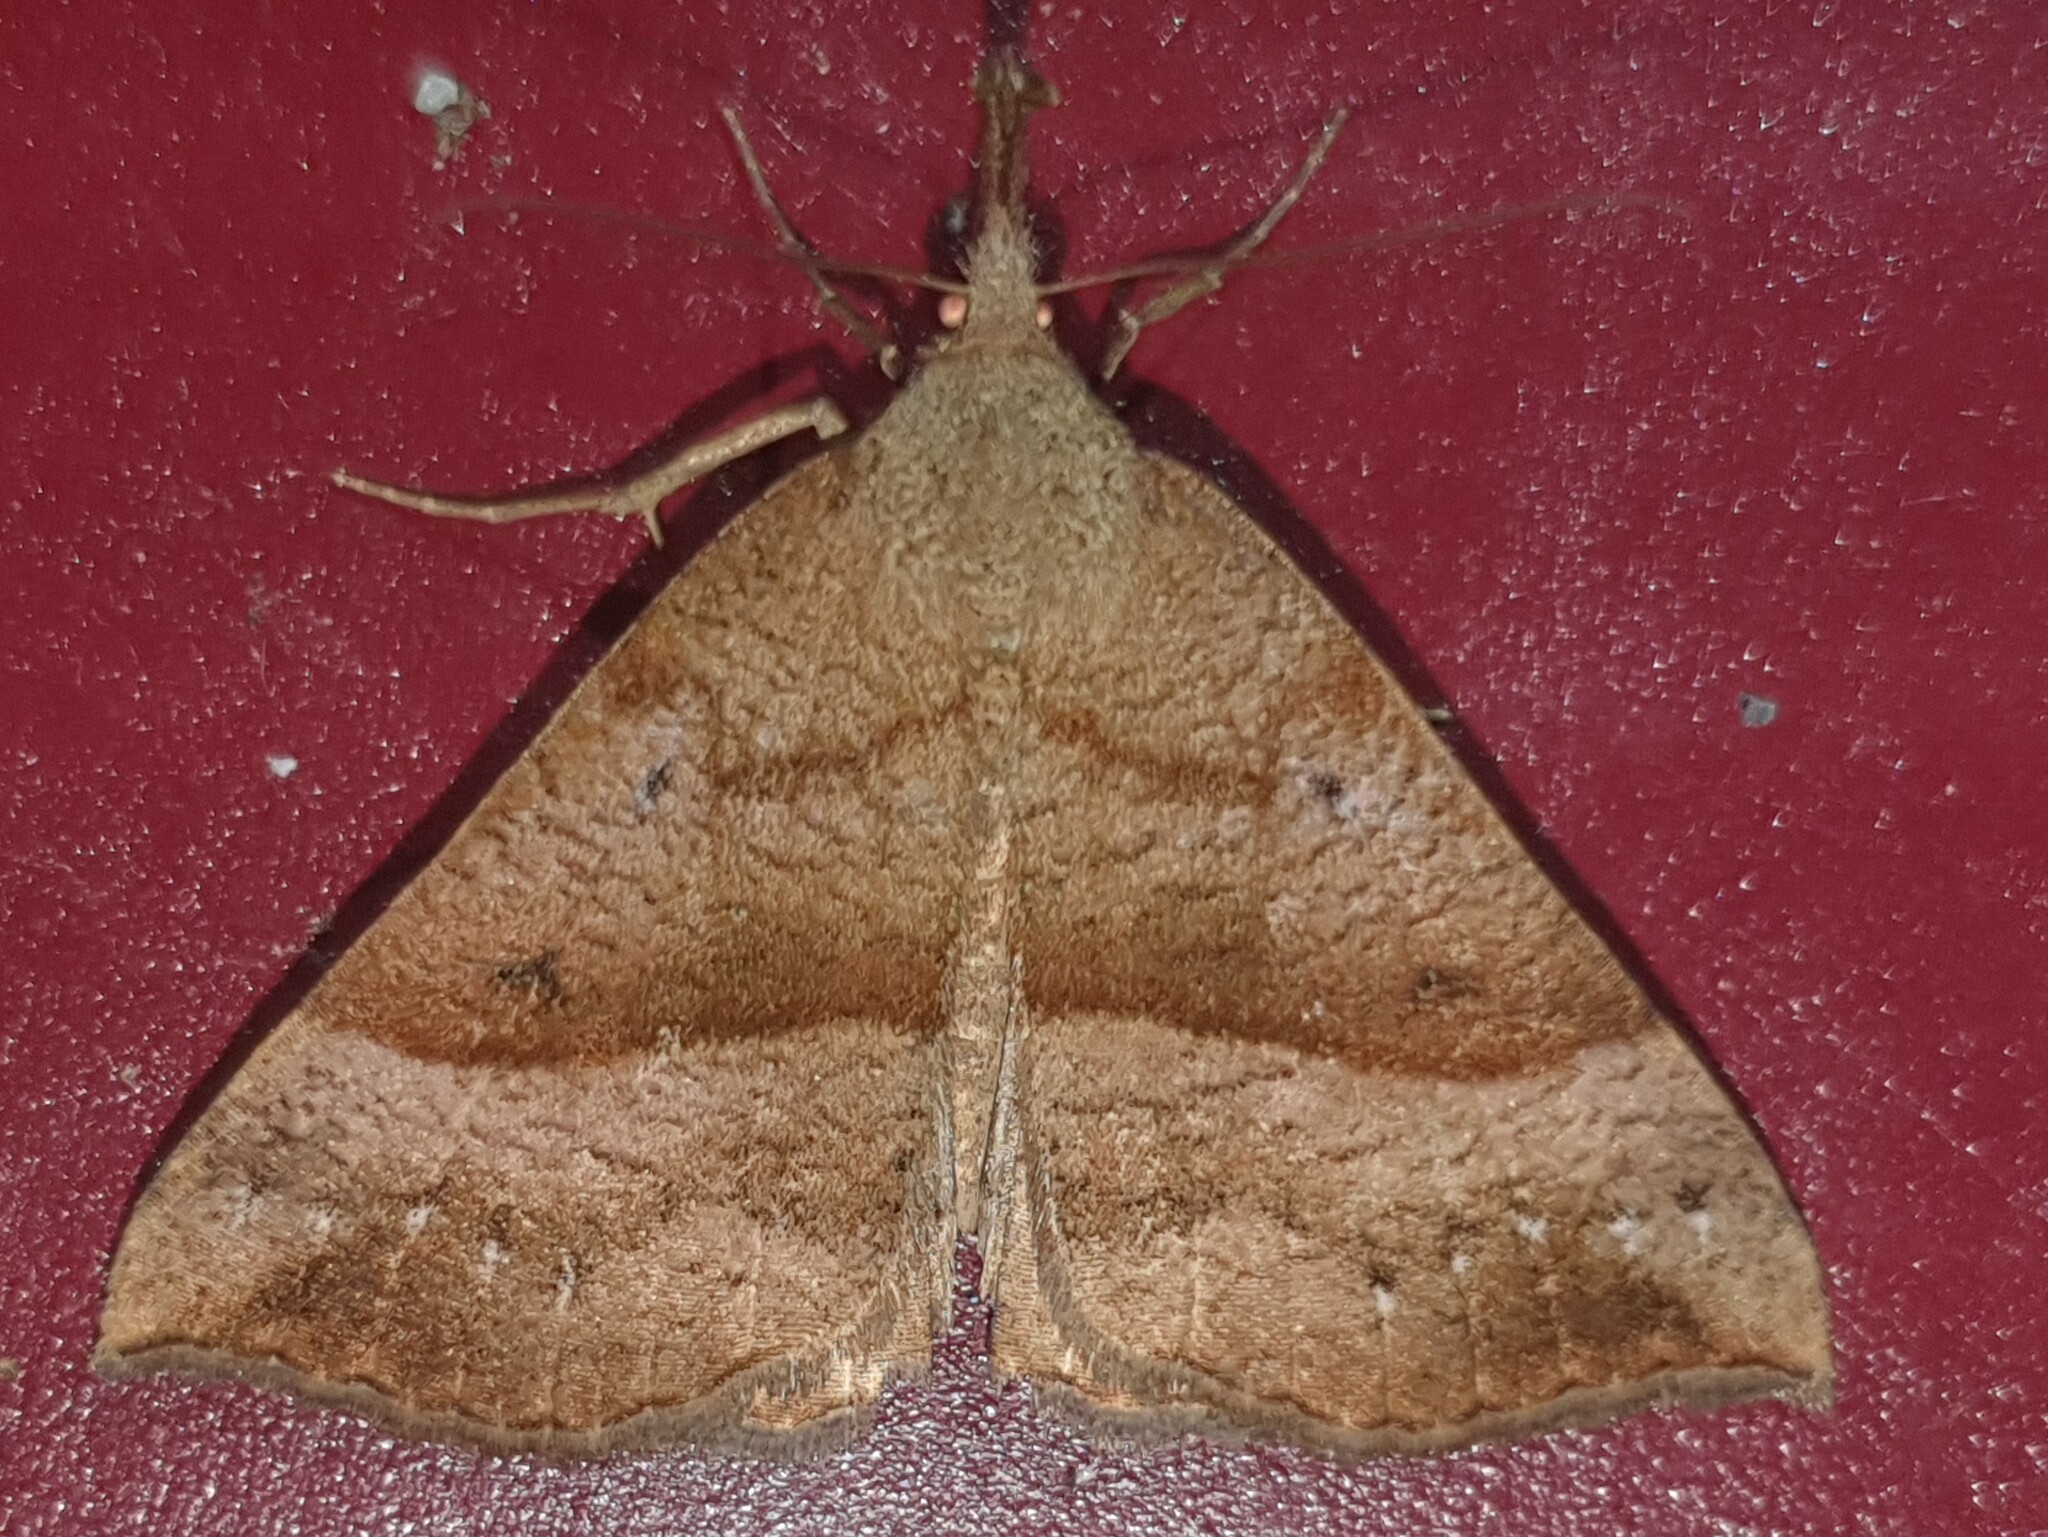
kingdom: Animalia
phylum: Arthropoda
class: Insecta
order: Lepidoptera
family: Erebidae
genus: Hypena
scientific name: Hypena proboscidalis
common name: Snout
